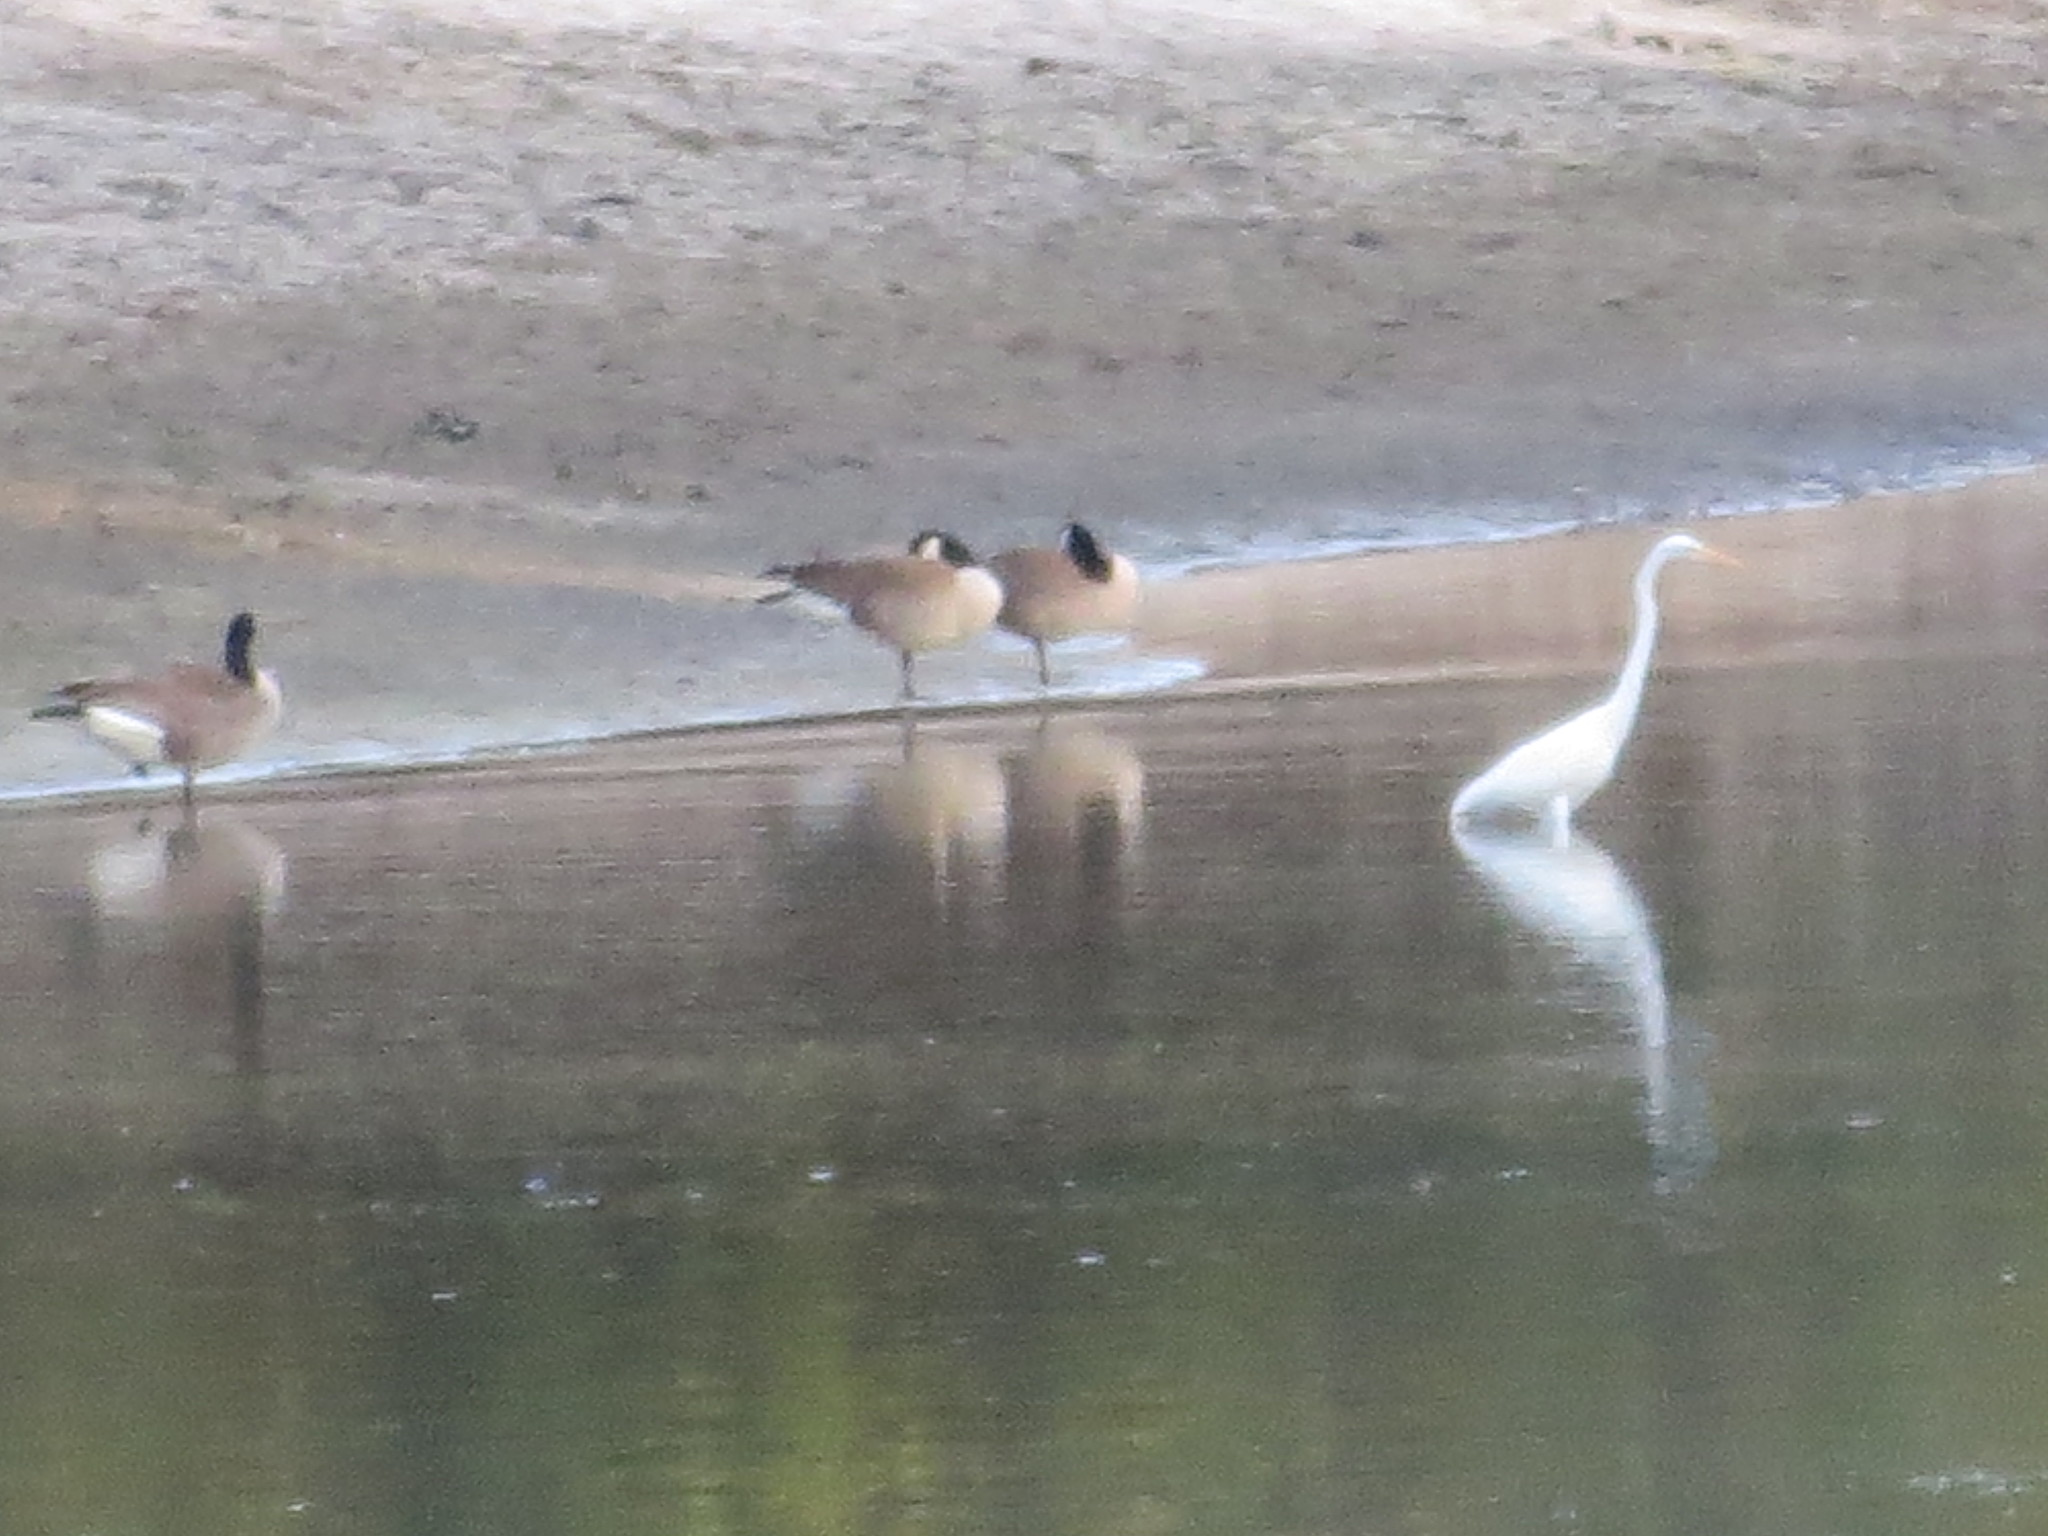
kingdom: Animalia
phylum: Chordata
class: Aves
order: Anseriformes
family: Anatidae
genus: Branta
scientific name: Branta canadensis
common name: Canada goose
